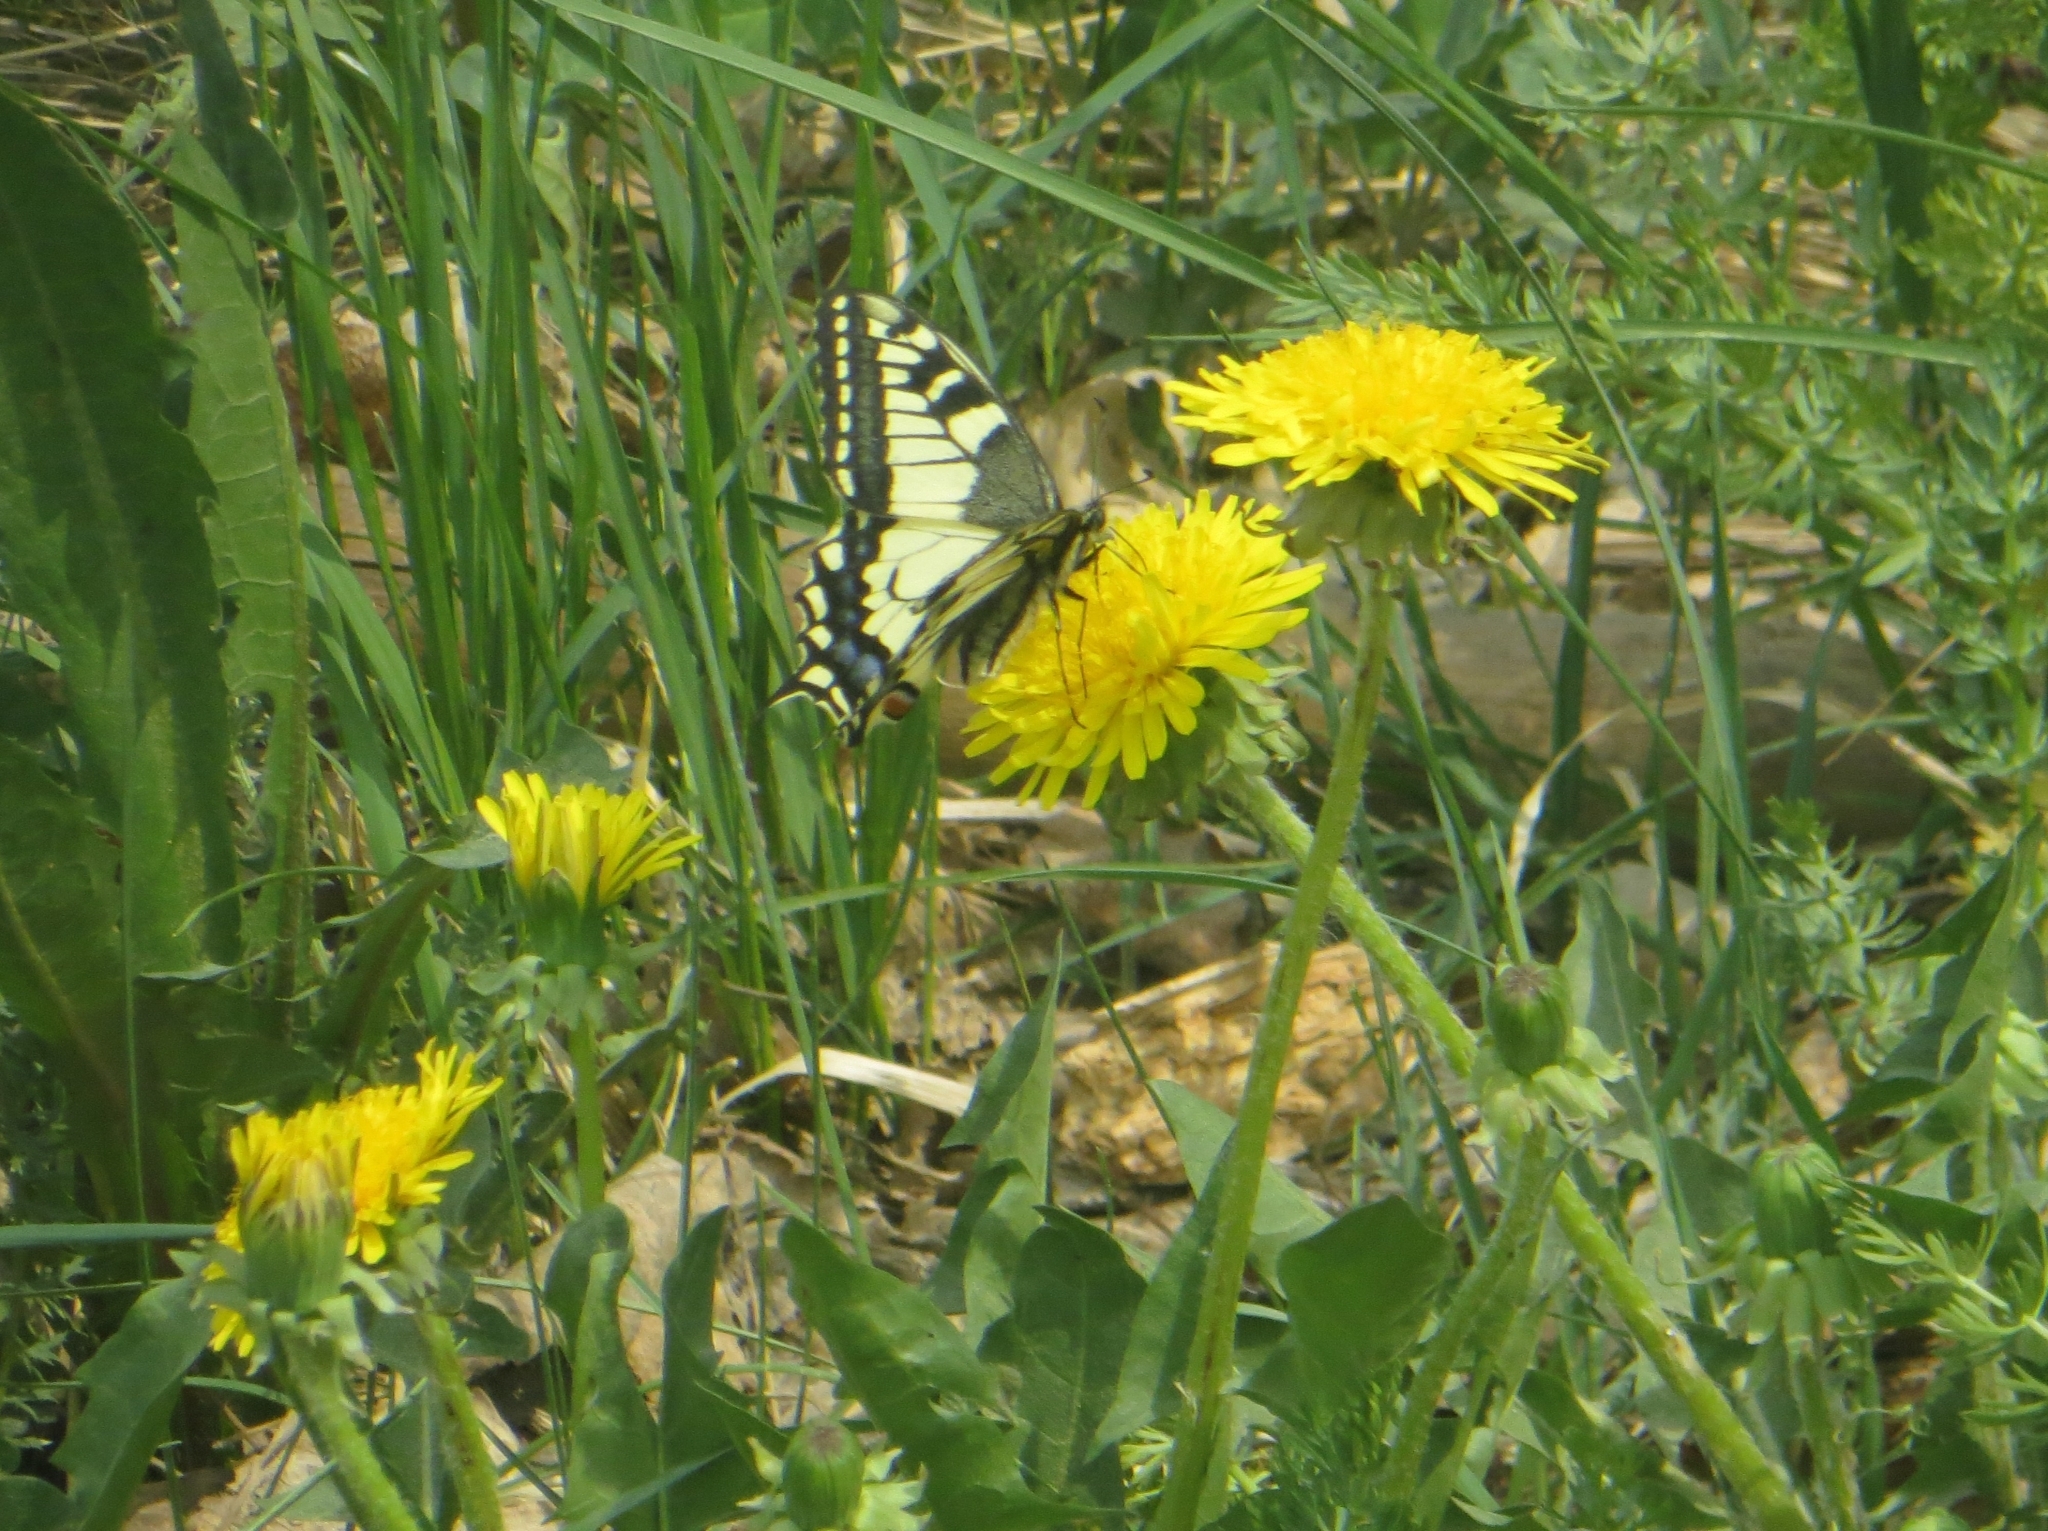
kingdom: Animalia
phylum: Arthropoda
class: Insecta
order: Lepidoptera
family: Papilionidae
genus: Papilio
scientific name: Papilio machaon
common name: Swallowtail
